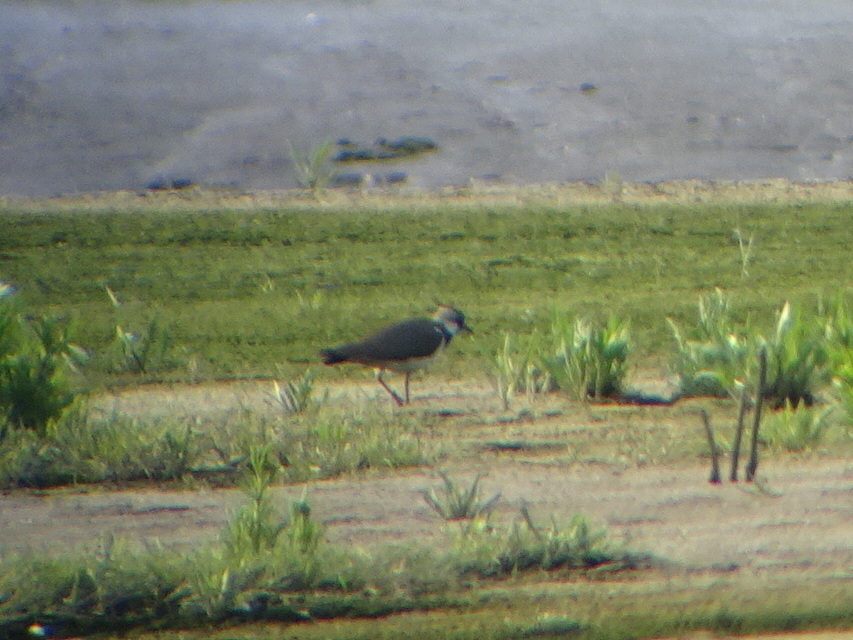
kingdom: Animalia
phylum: Chordata
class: Aves
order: Charadriiformes
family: Charadriidae
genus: Vanellus
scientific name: Vanellus vanellus
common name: Northern lapwing
